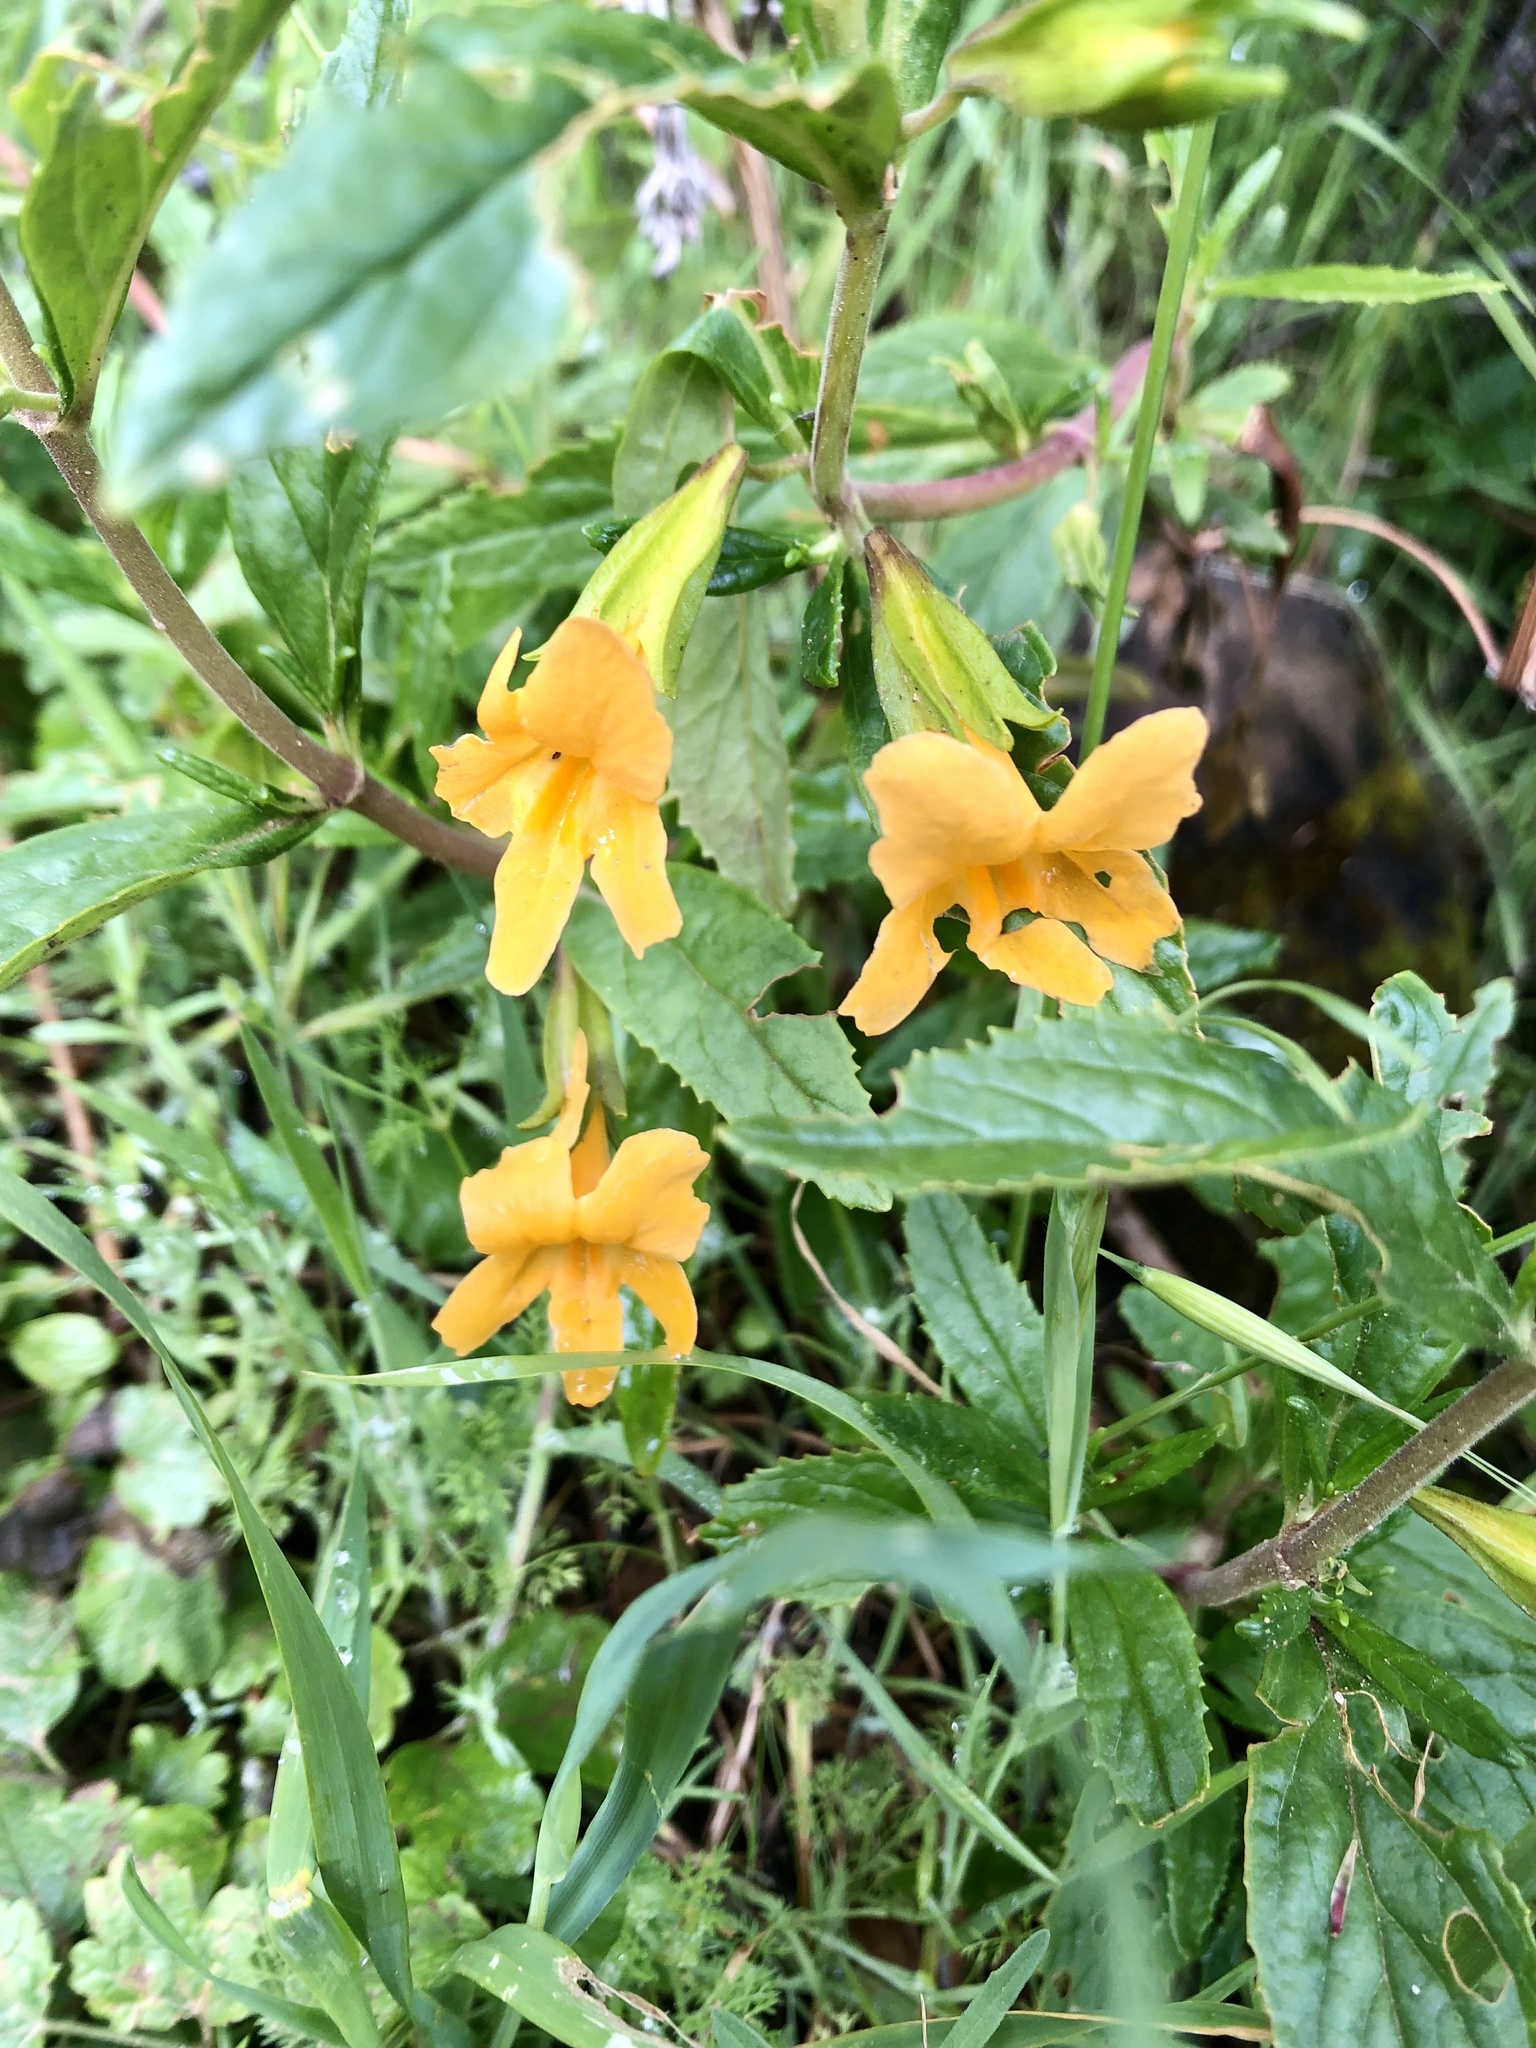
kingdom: Plantae
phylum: Tracheophyta
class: Magnoliopsida
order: Lamiales
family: Phrymaceae
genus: Diplacus
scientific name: Diplacus aurantiacus
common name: Bush monkey-flower
